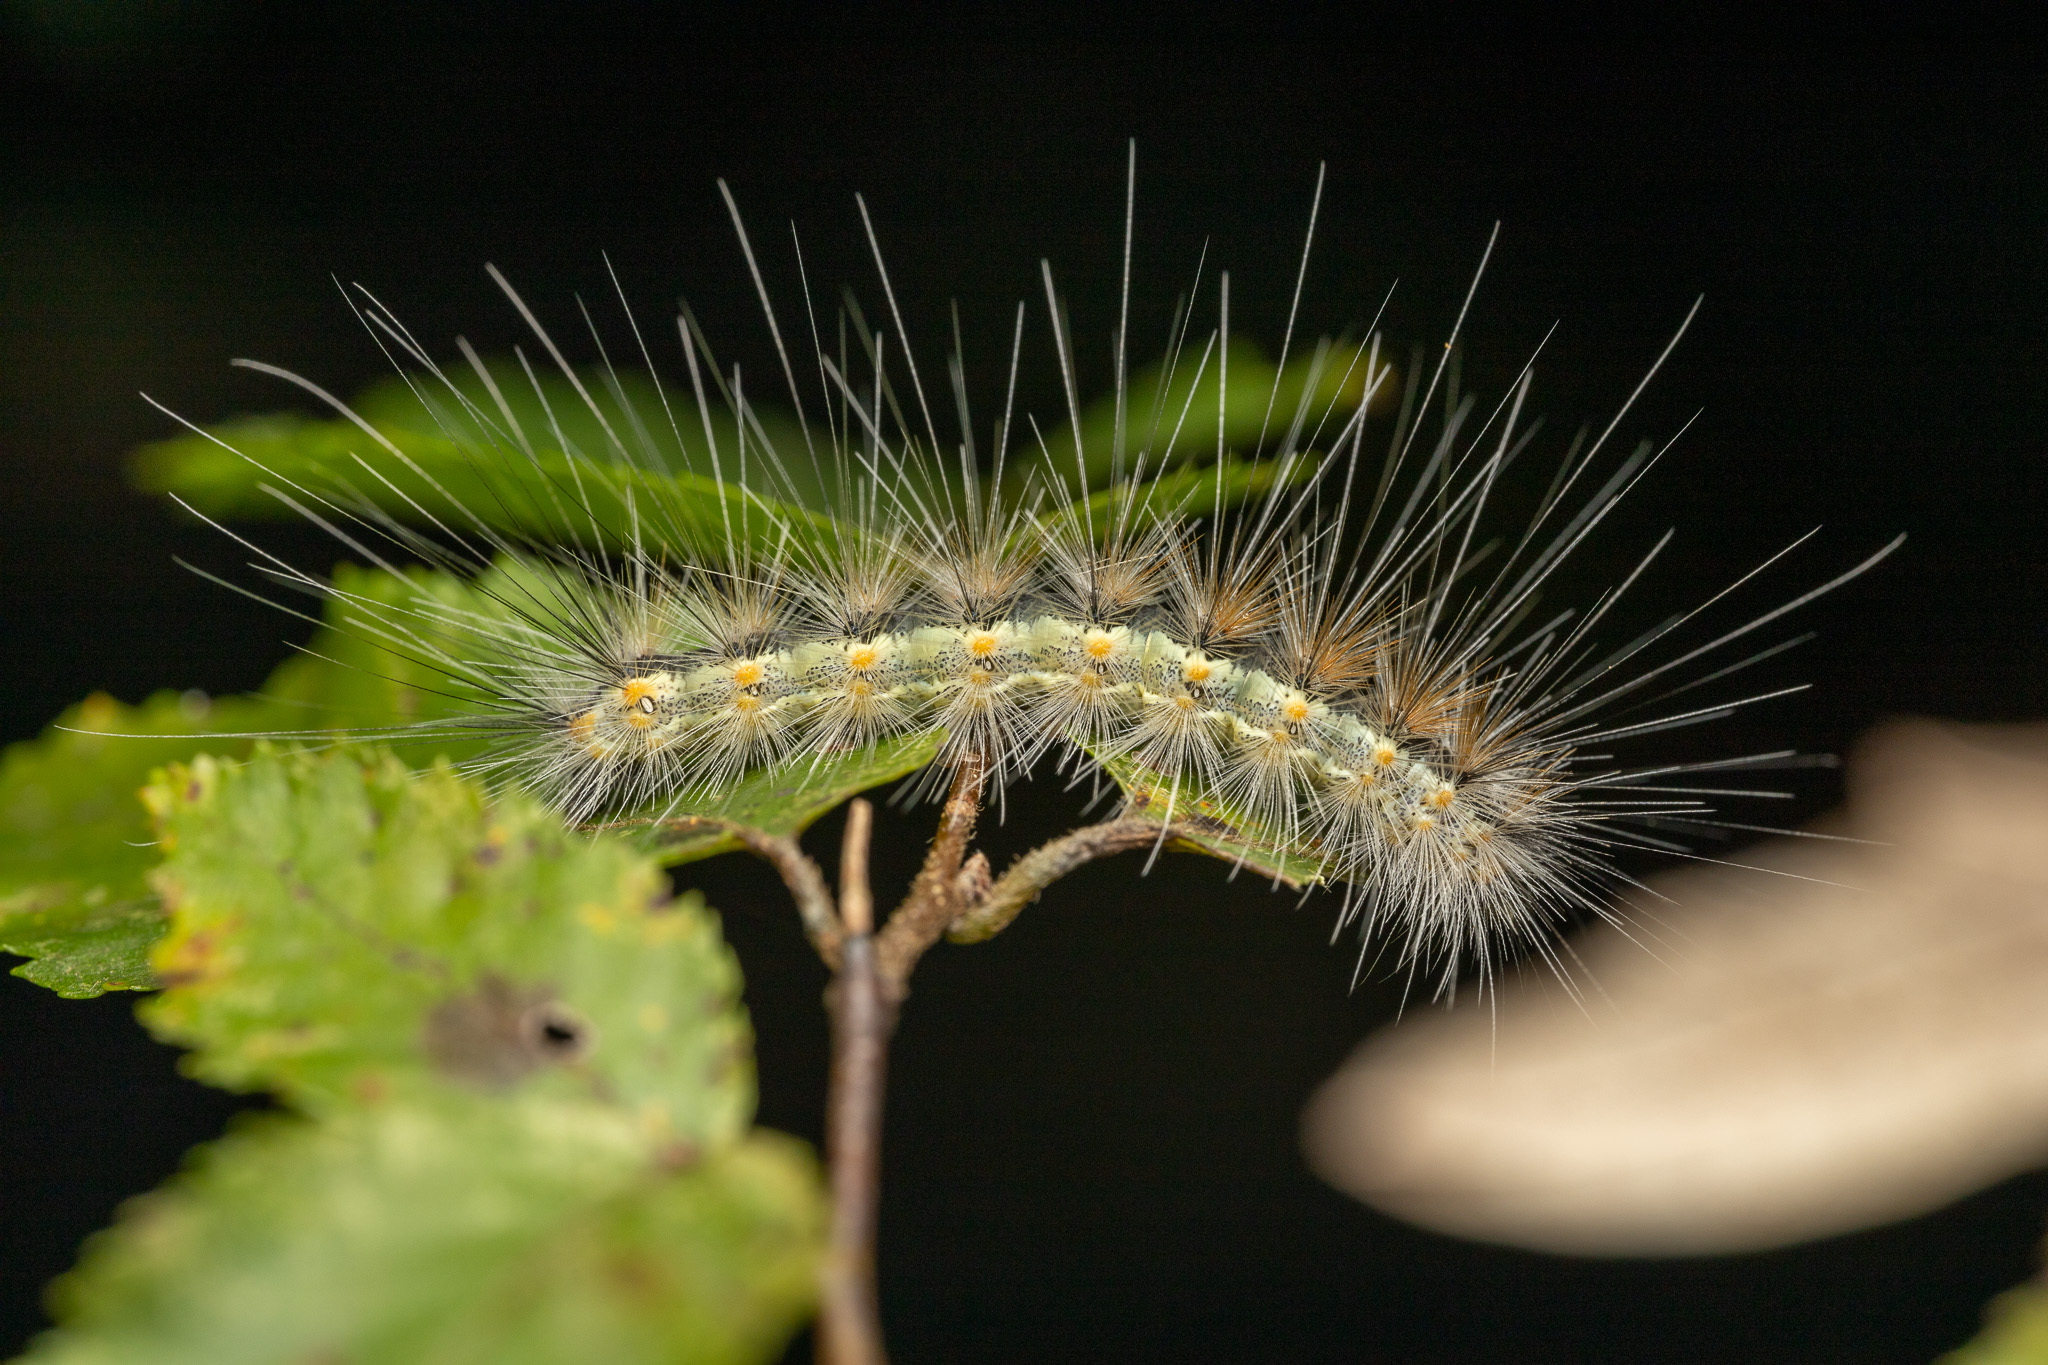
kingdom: Animalia
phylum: Arthropoda
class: Insecta
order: Lepidoptera
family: Erebidae
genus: Hyphantria
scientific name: Hyphantria cunea
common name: American white moth
